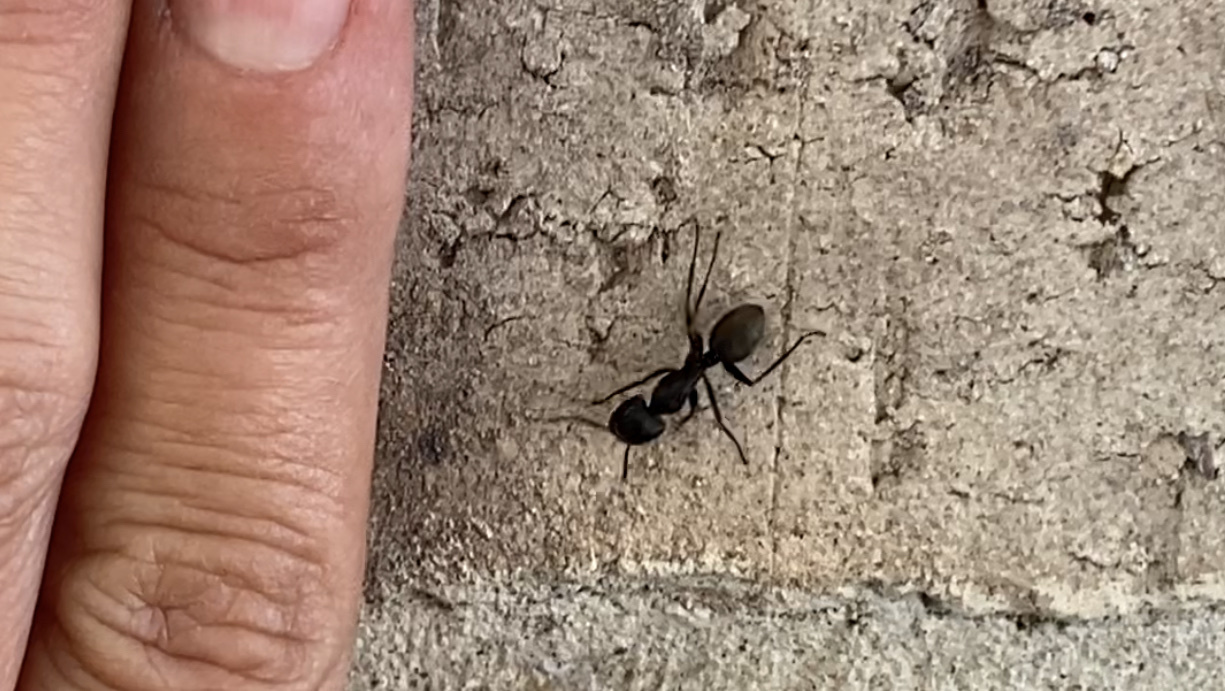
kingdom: Animalia
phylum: Arthropoda
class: Insecta
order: Hymenoptera
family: Formicidae
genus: Camponotus
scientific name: Camponotus pennsylvanicus
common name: Black carpenter ant
